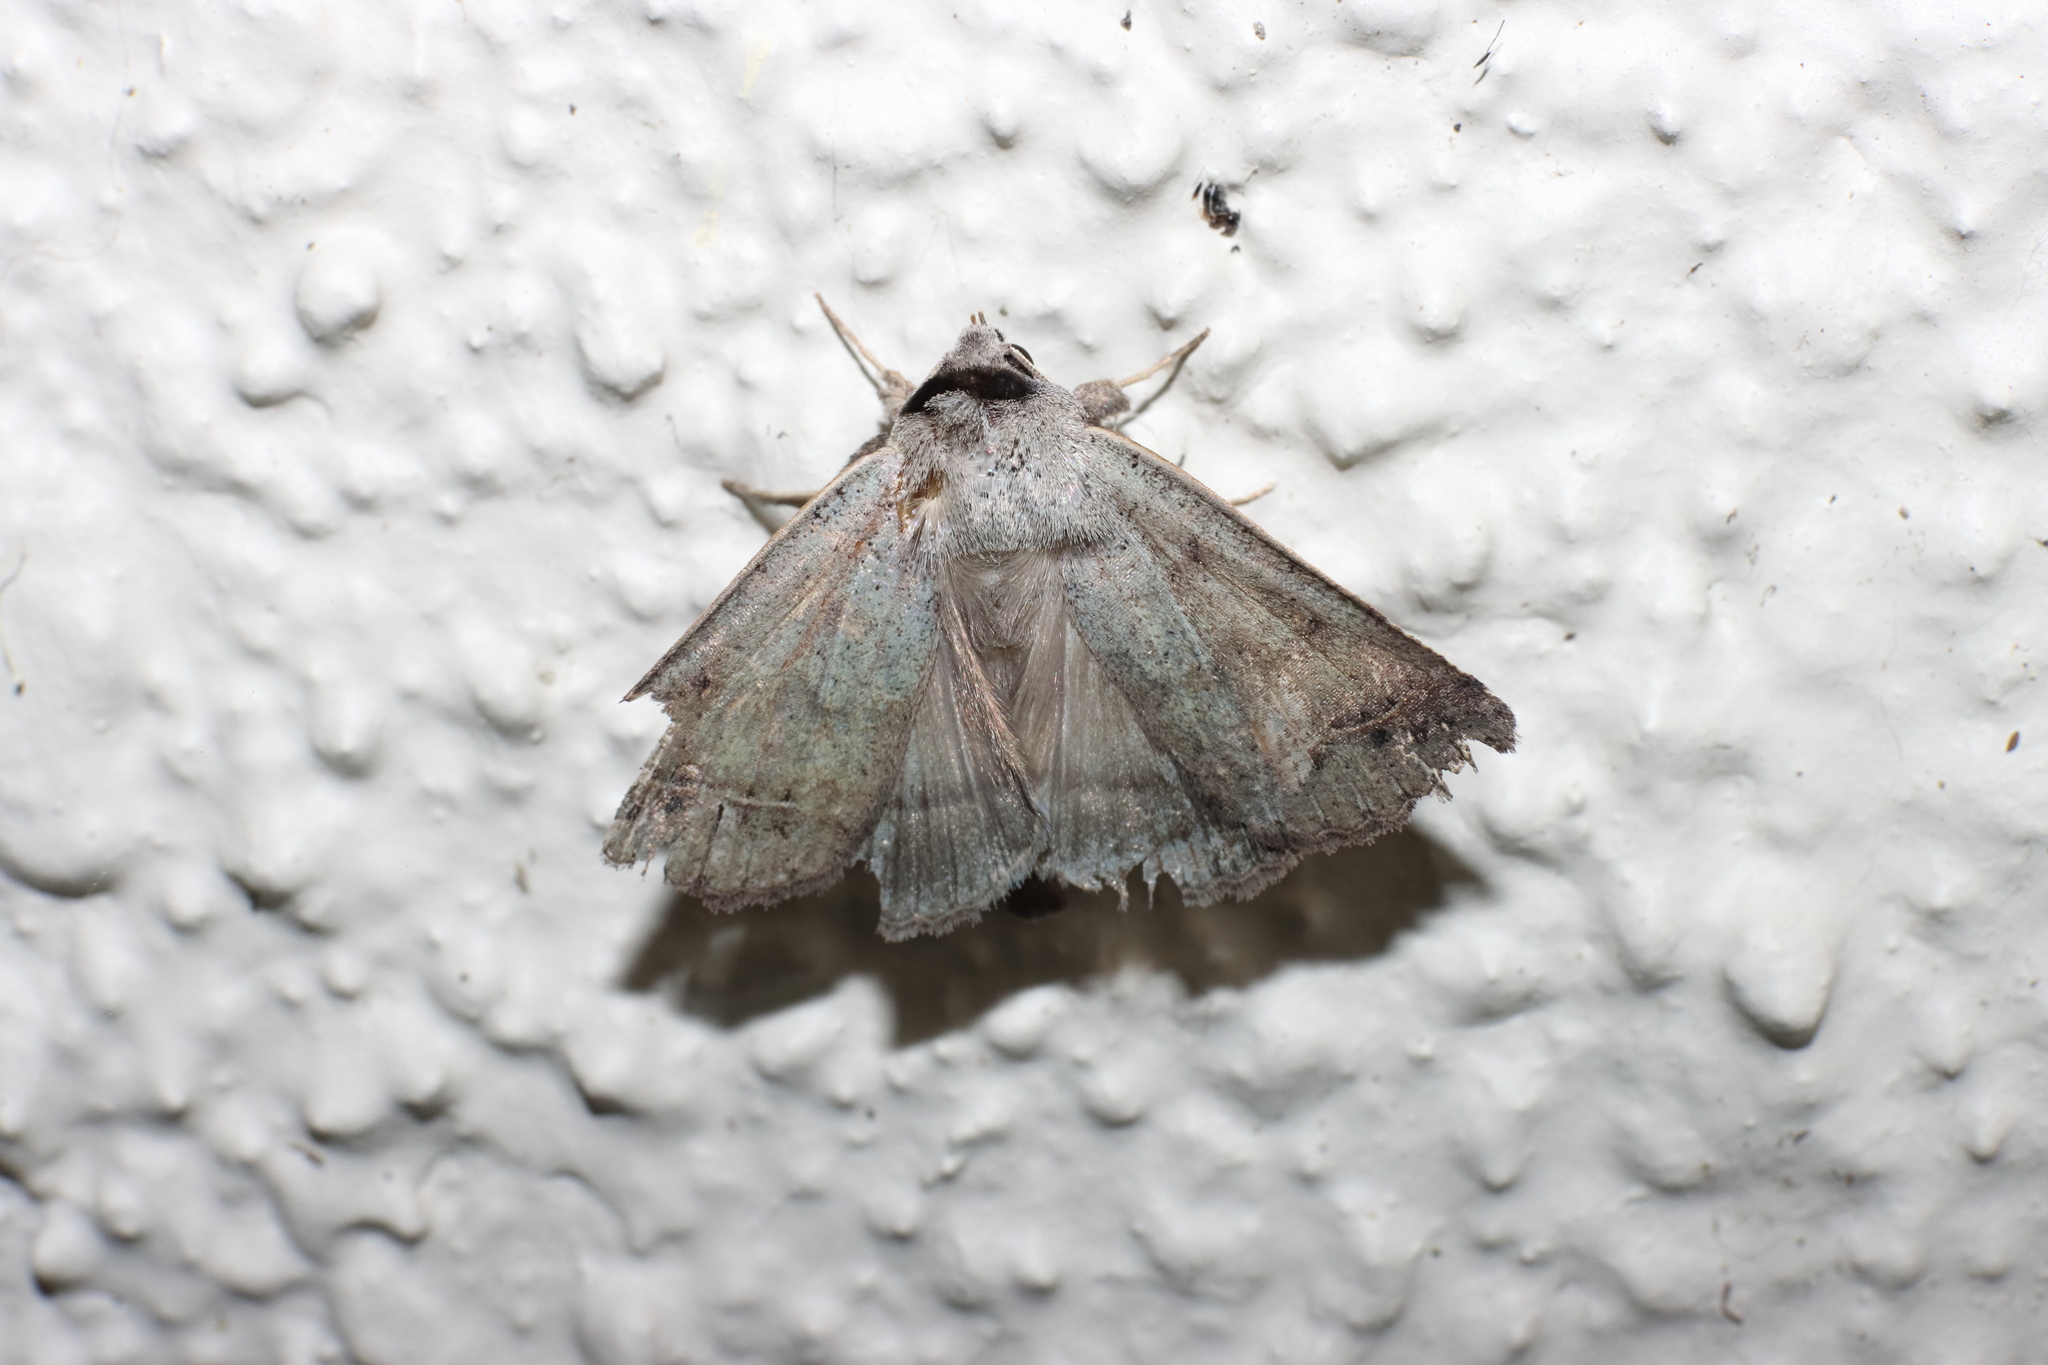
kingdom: Animalia
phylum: Arthropoda
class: Insecta
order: Lepidoptera
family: Erebidae
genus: Pantydia
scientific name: Pantydia sparsa
